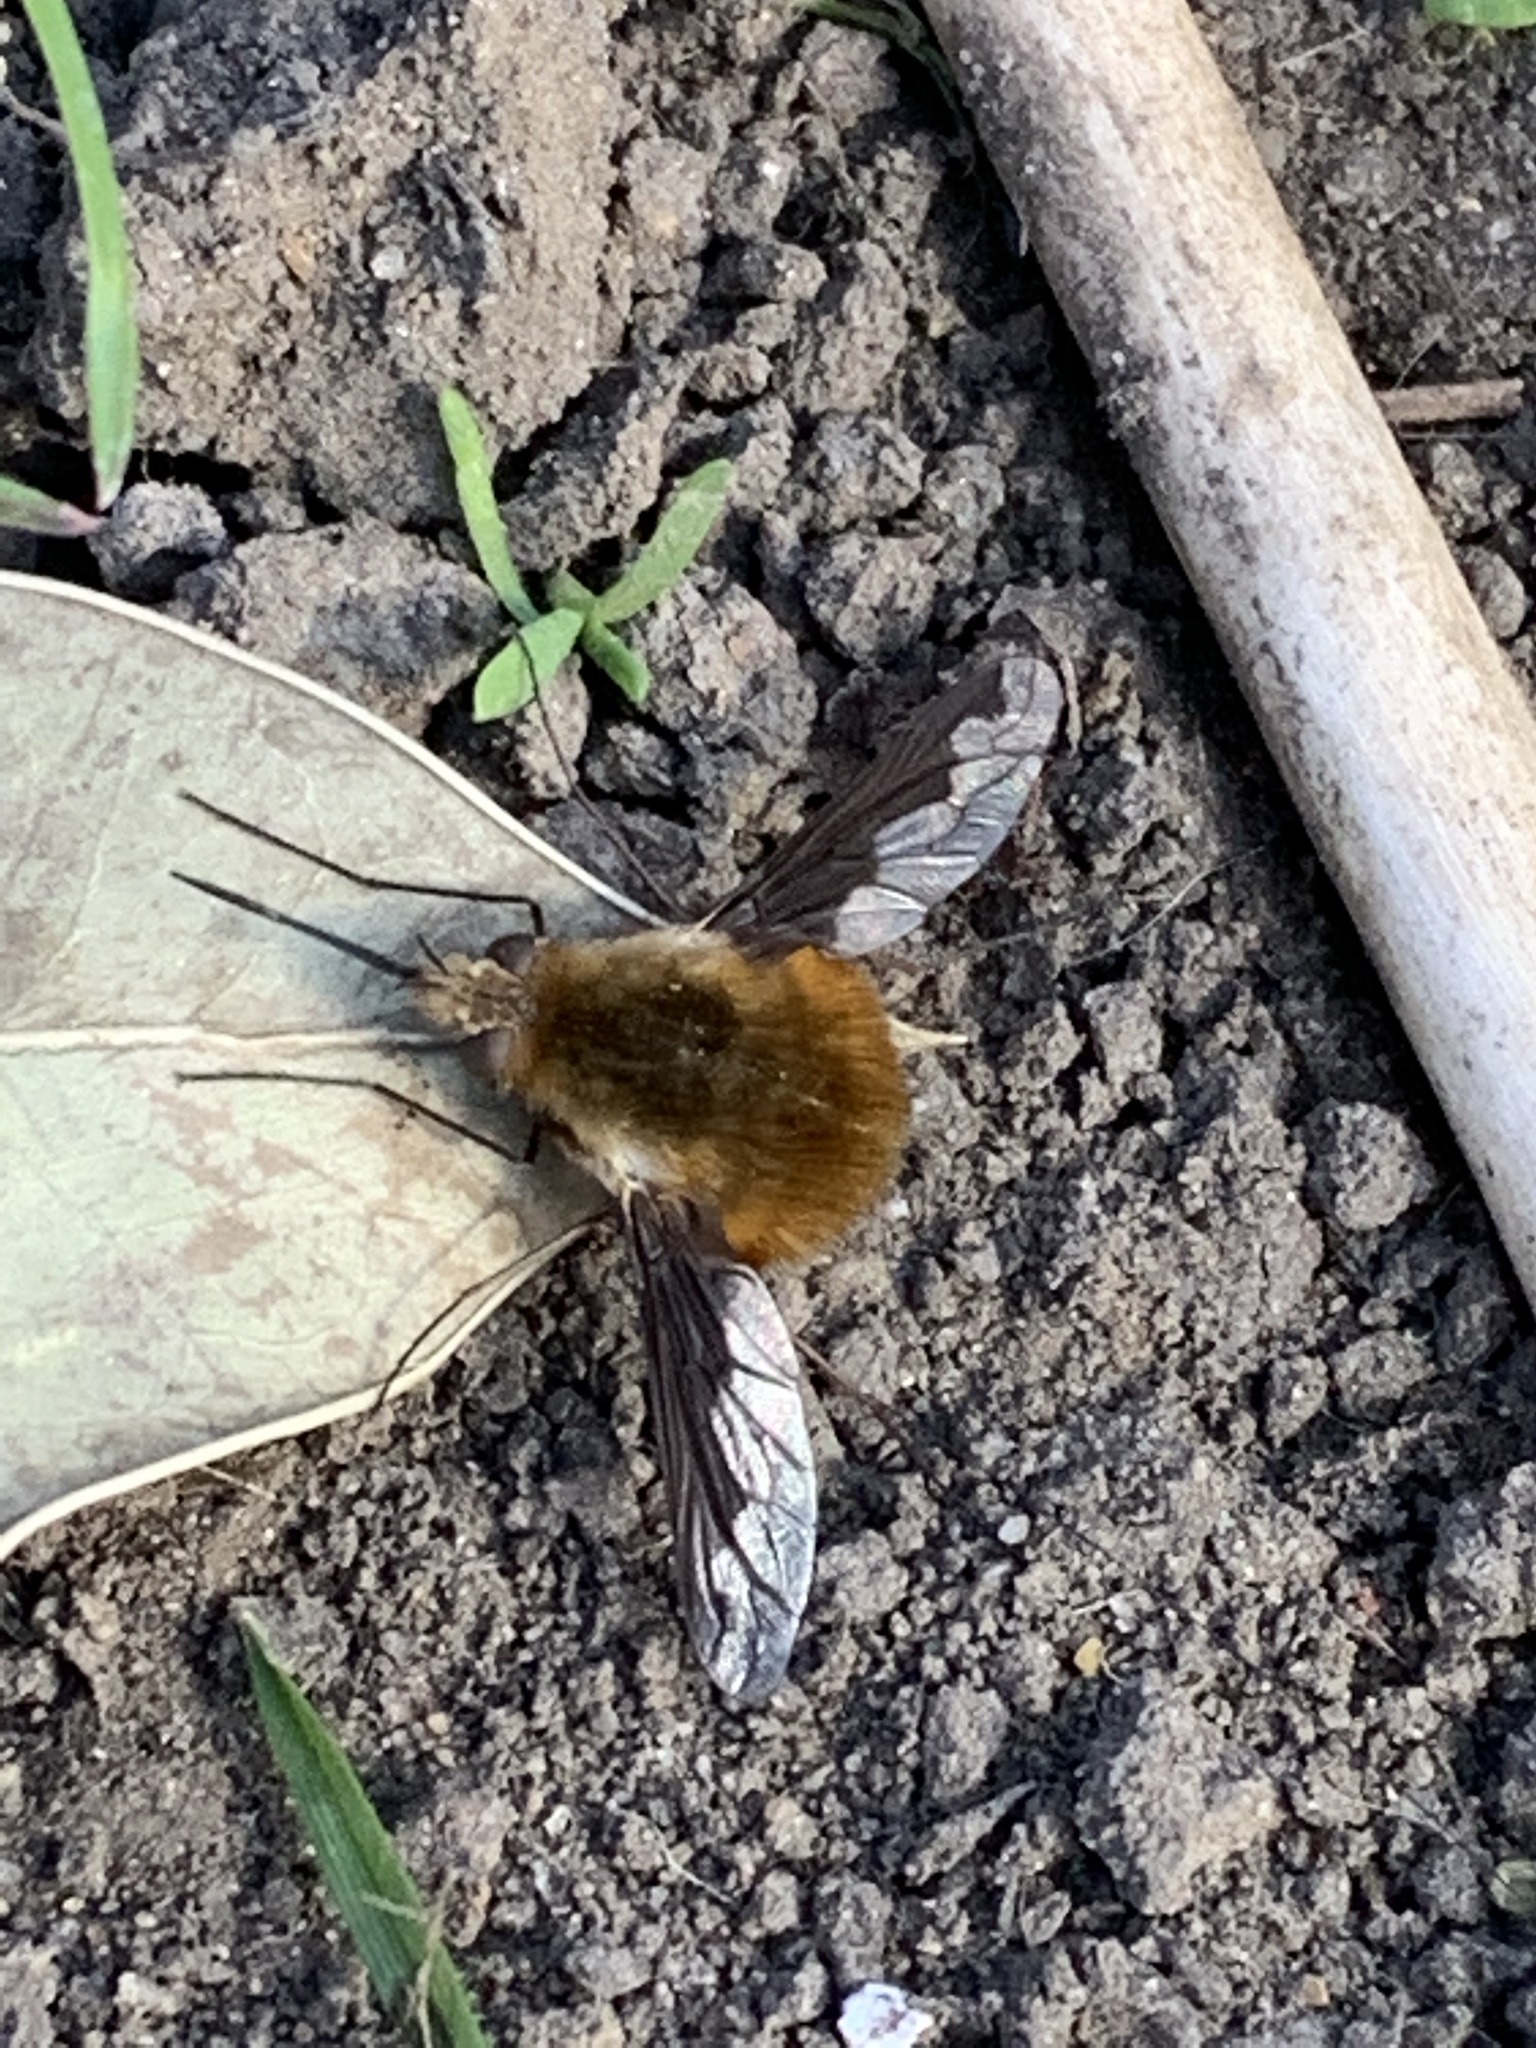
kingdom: Animalia
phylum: Arthropoda
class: Insecta
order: Diptera
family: Bombyliidae
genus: Bombylius
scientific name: Bombylius major
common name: Bee fly
